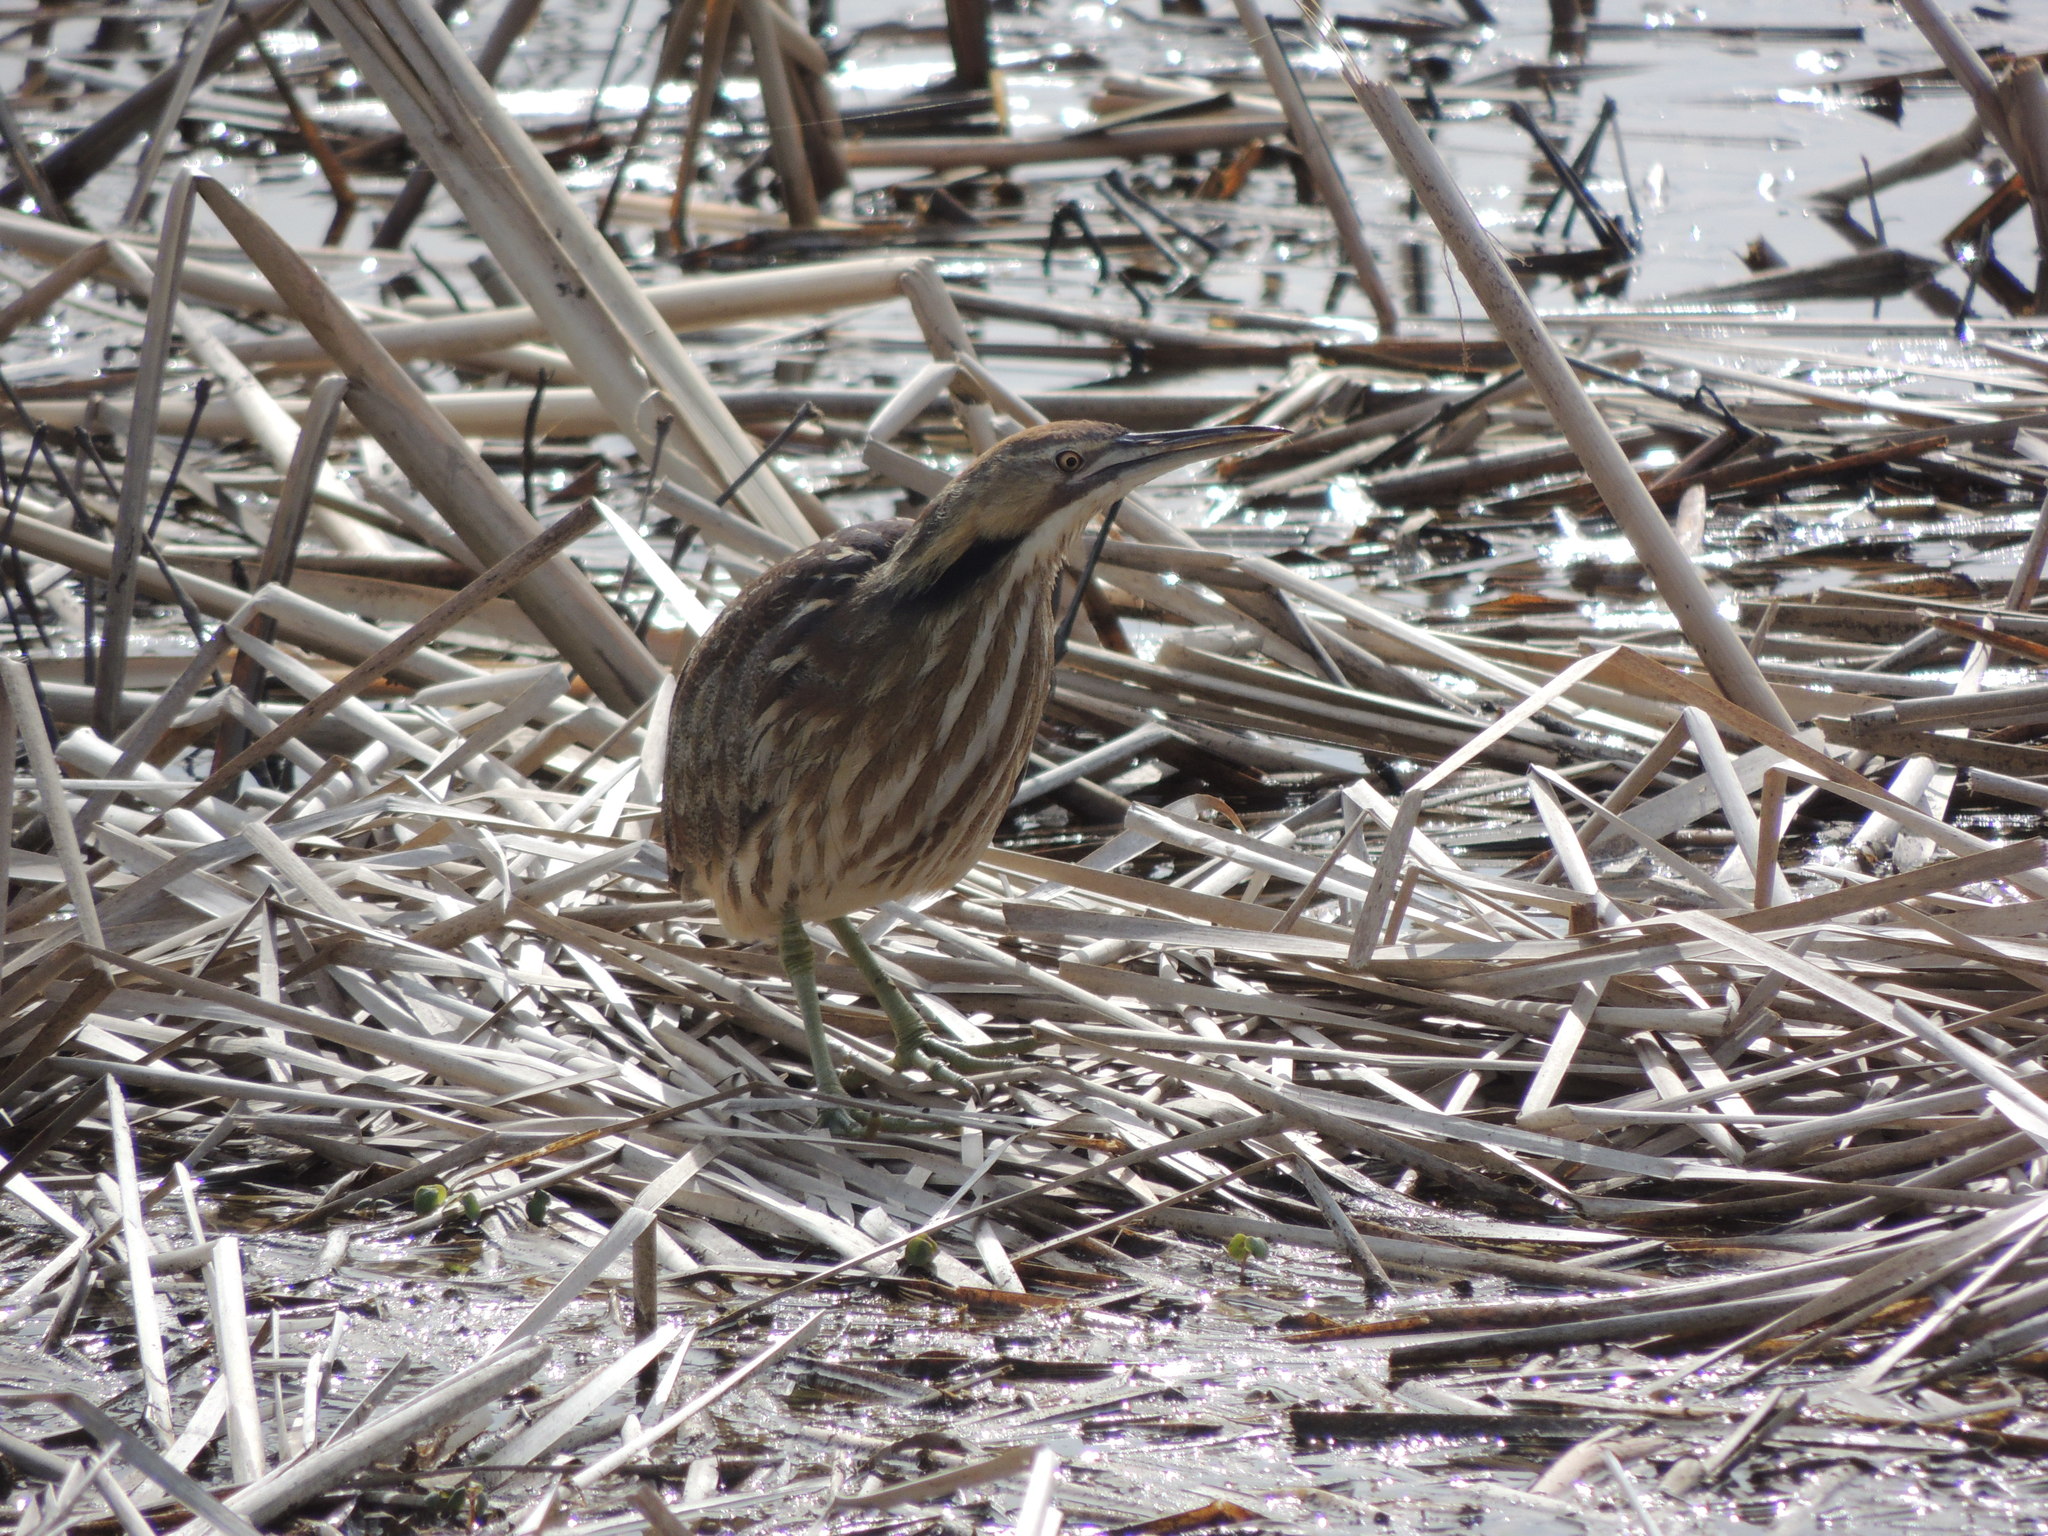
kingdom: Animalia
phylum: Chordata
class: Aves
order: Pelecaniformes
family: Ardeidae
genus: Botaurus
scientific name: Botaurus lentiginosus
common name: American bittern
